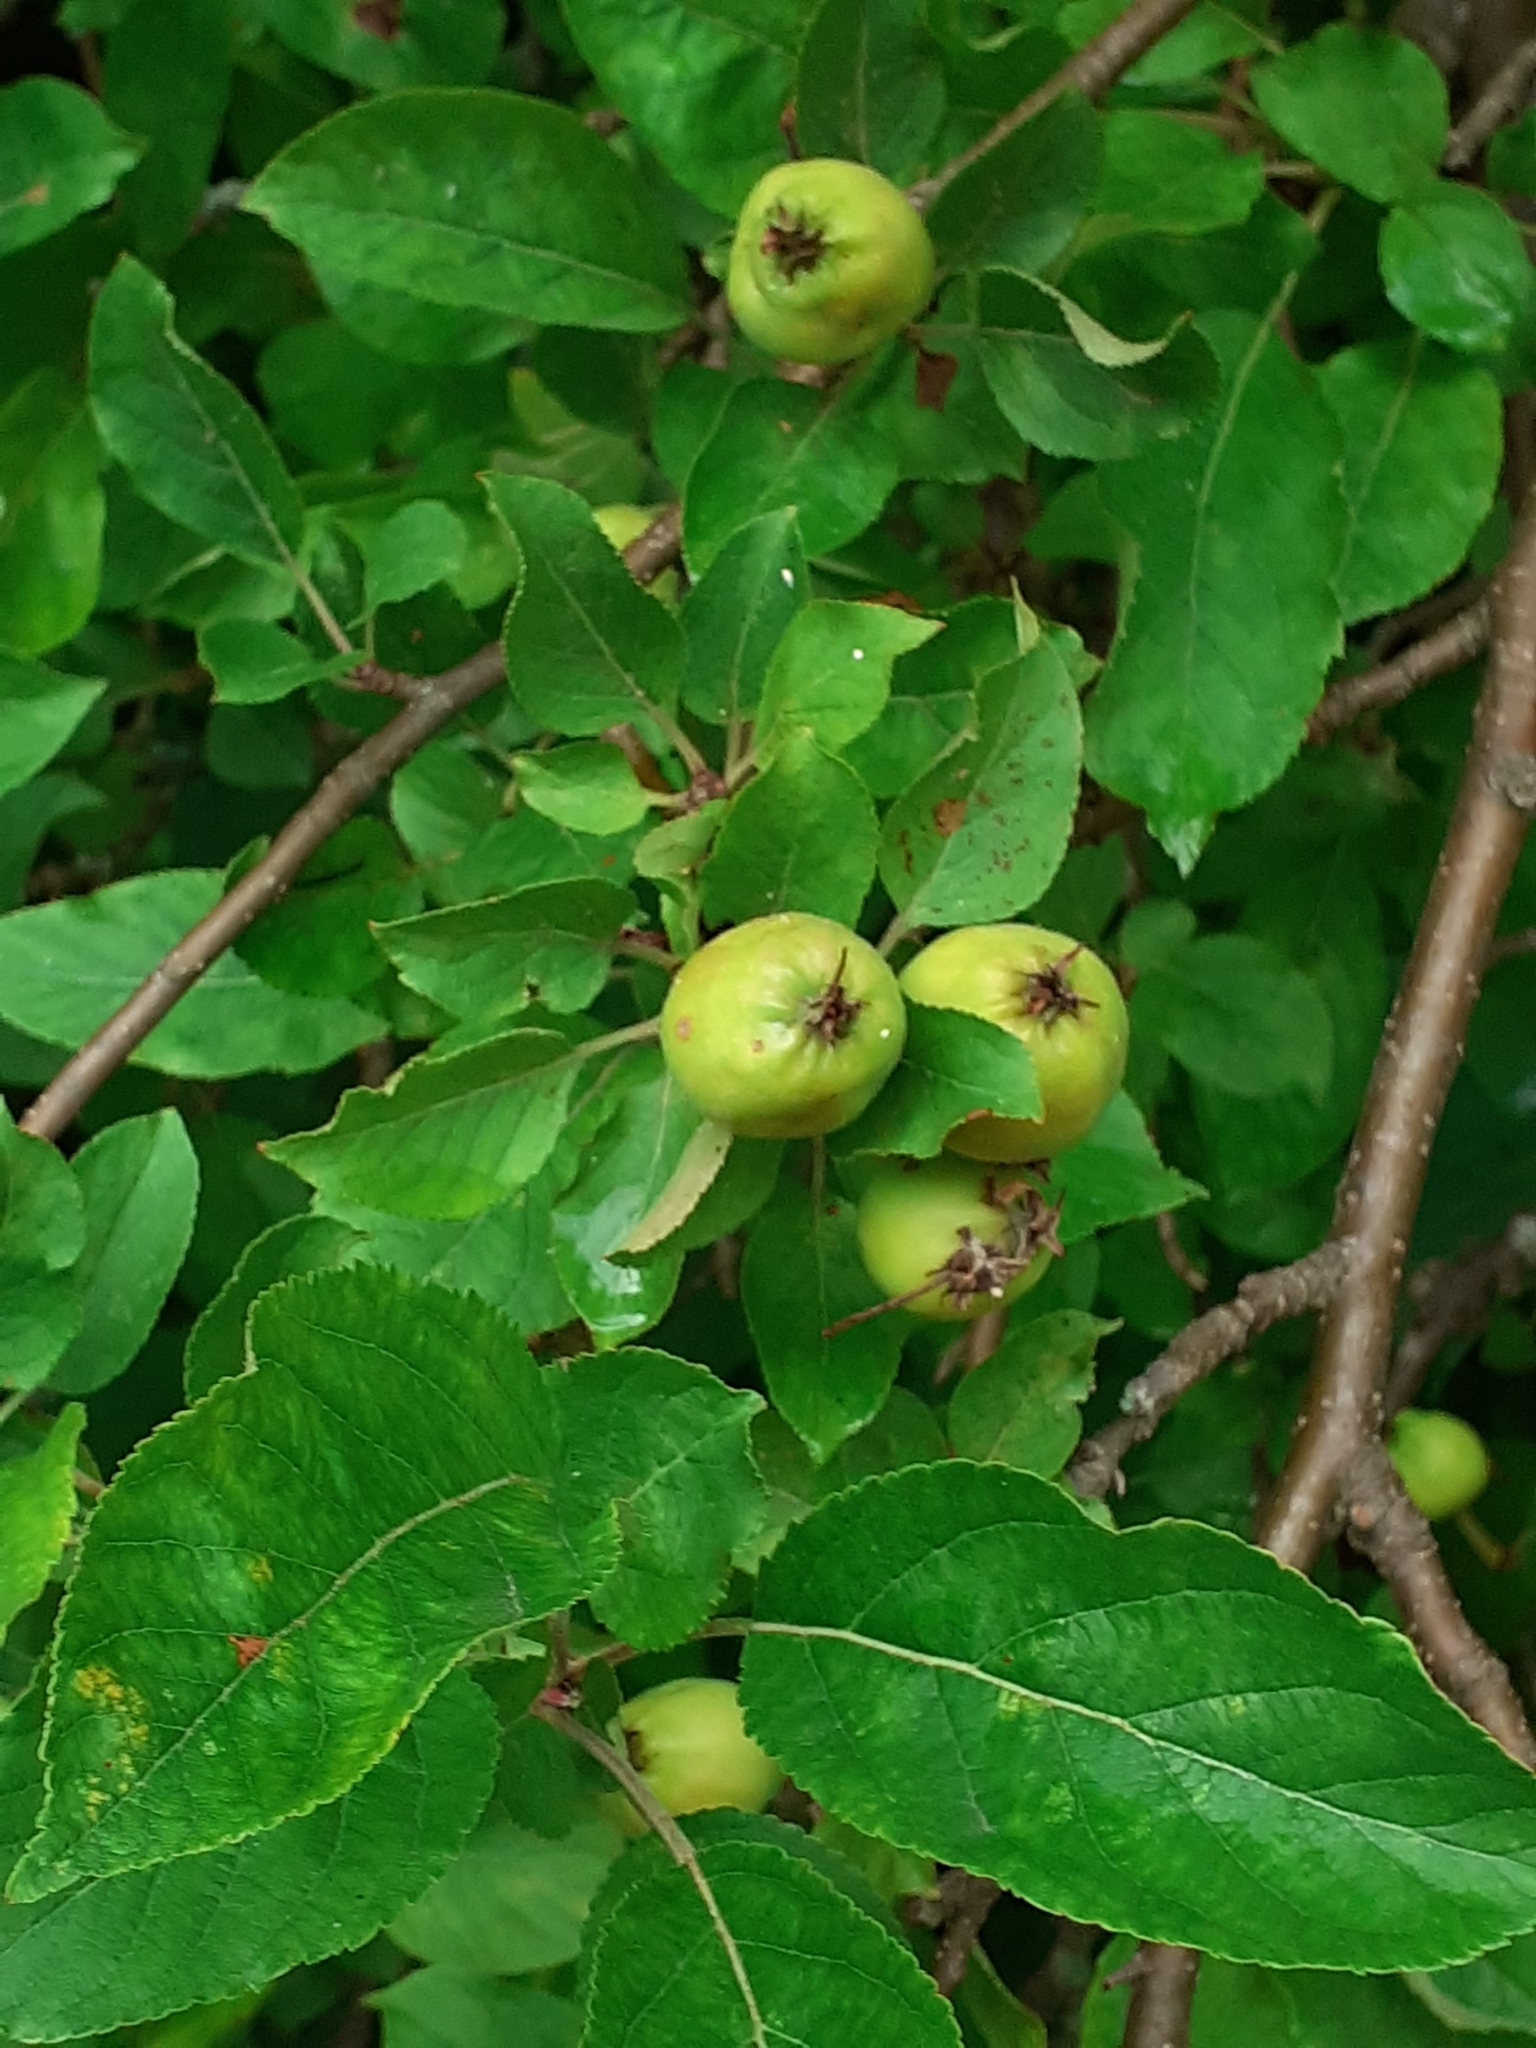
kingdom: Plantae
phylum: Tracheophyta
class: Magnoliopsida
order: Rosales
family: Rosaceae
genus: Malus
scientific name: Malus domestica
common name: Apple
